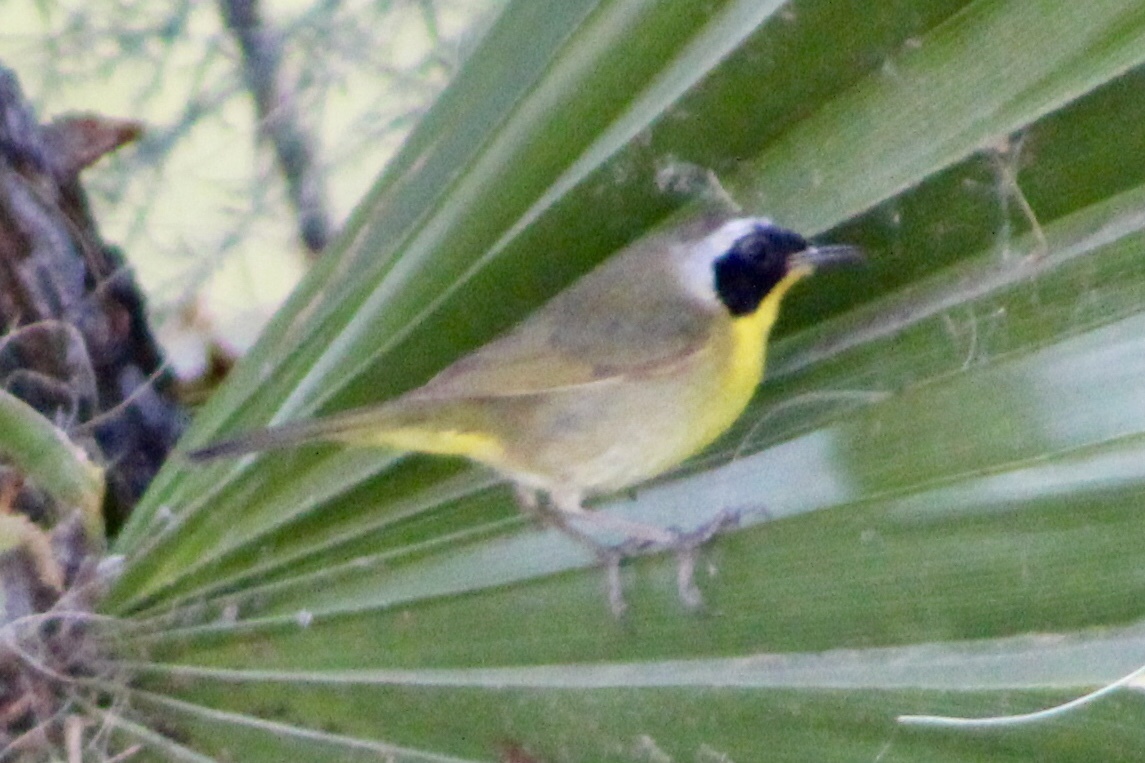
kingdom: Animalia
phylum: Chordata
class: Aves
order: Passeriformes
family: Parulidae
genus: Geothlypis
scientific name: Geothlypis trichas
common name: Common yellowthroat
